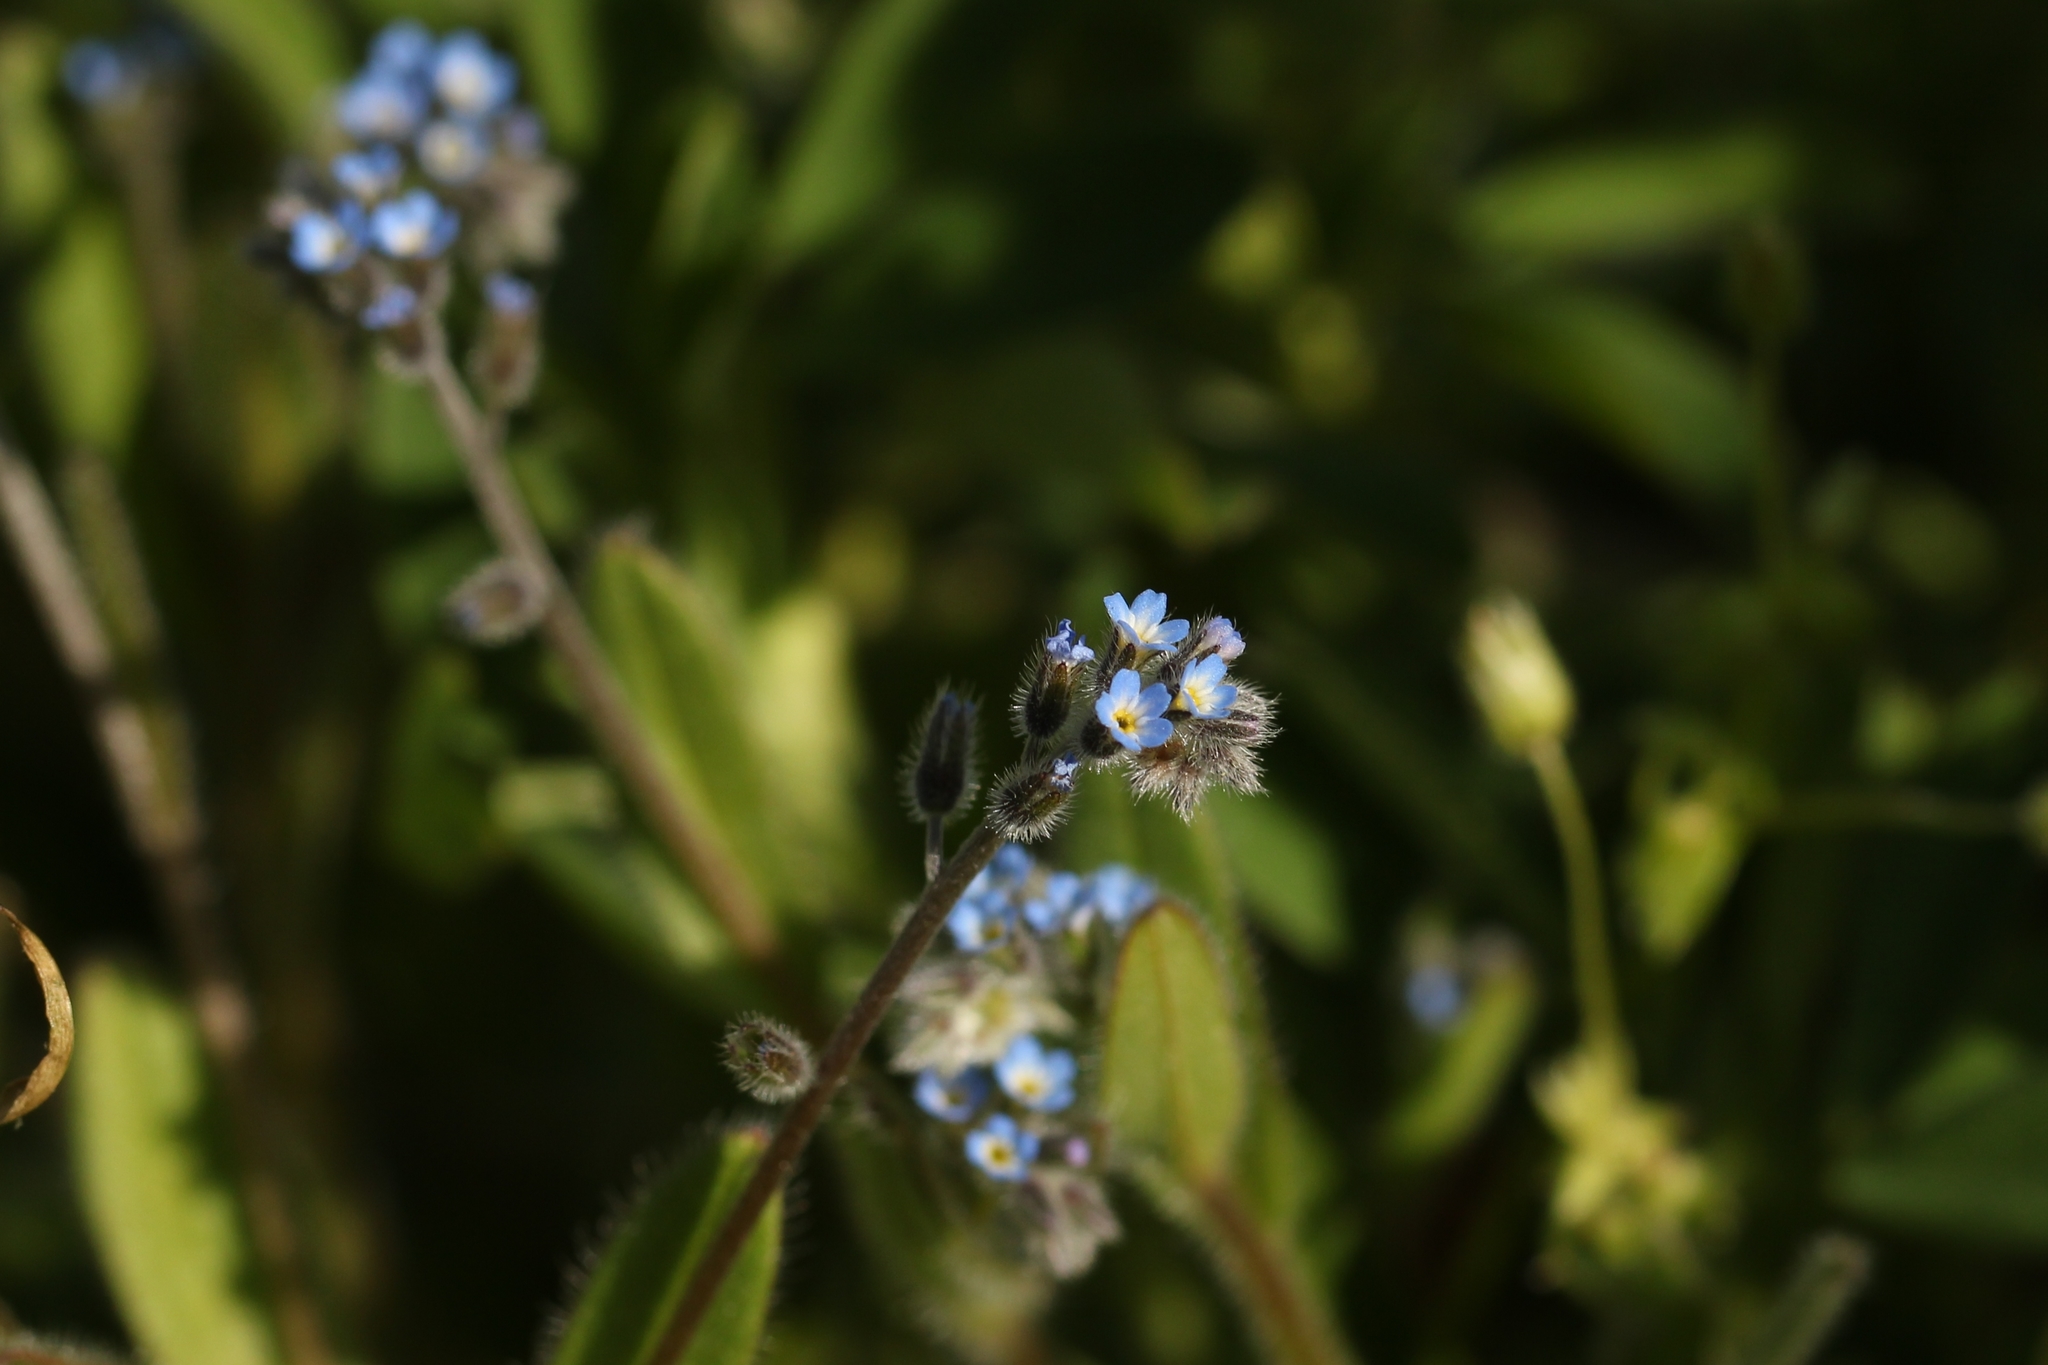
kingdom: Plantae
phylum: Tracheophyta
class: Magnoliopsida
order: Boraginales
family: Boraginaceae
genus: Myosotis
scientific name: Myosotis arvensis
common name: Field forget-me-not
